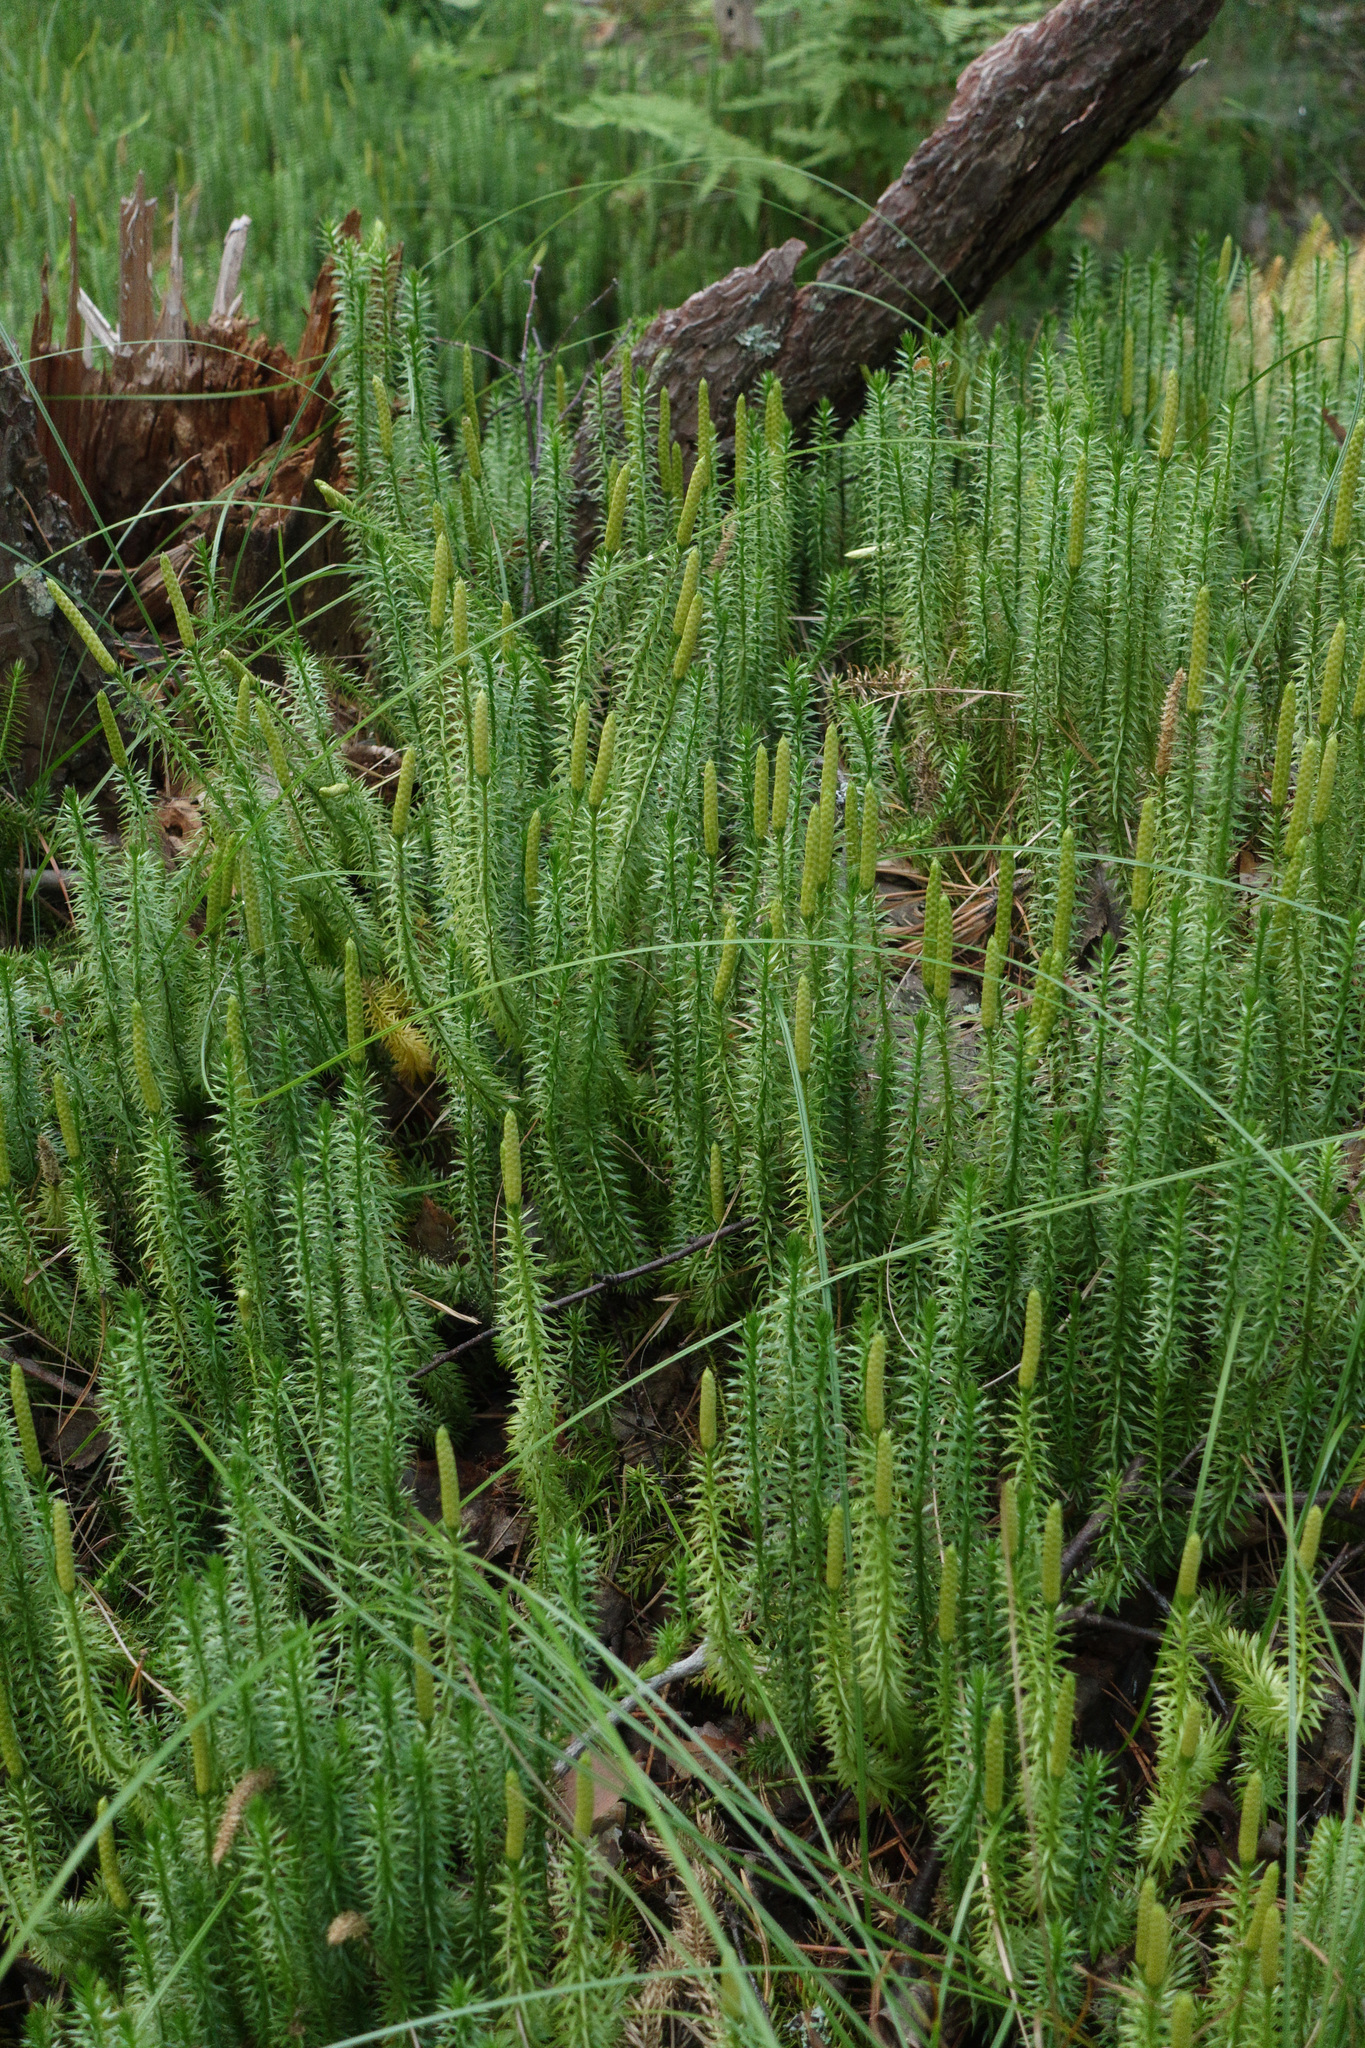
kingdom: Plantae
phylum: Tracheophyta
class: Lycopodiopsida
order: Lycopodiales
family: Lycopodiaceae
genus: Spinulum
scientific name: Spinulum annotinum
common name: Interrupted club-moss
